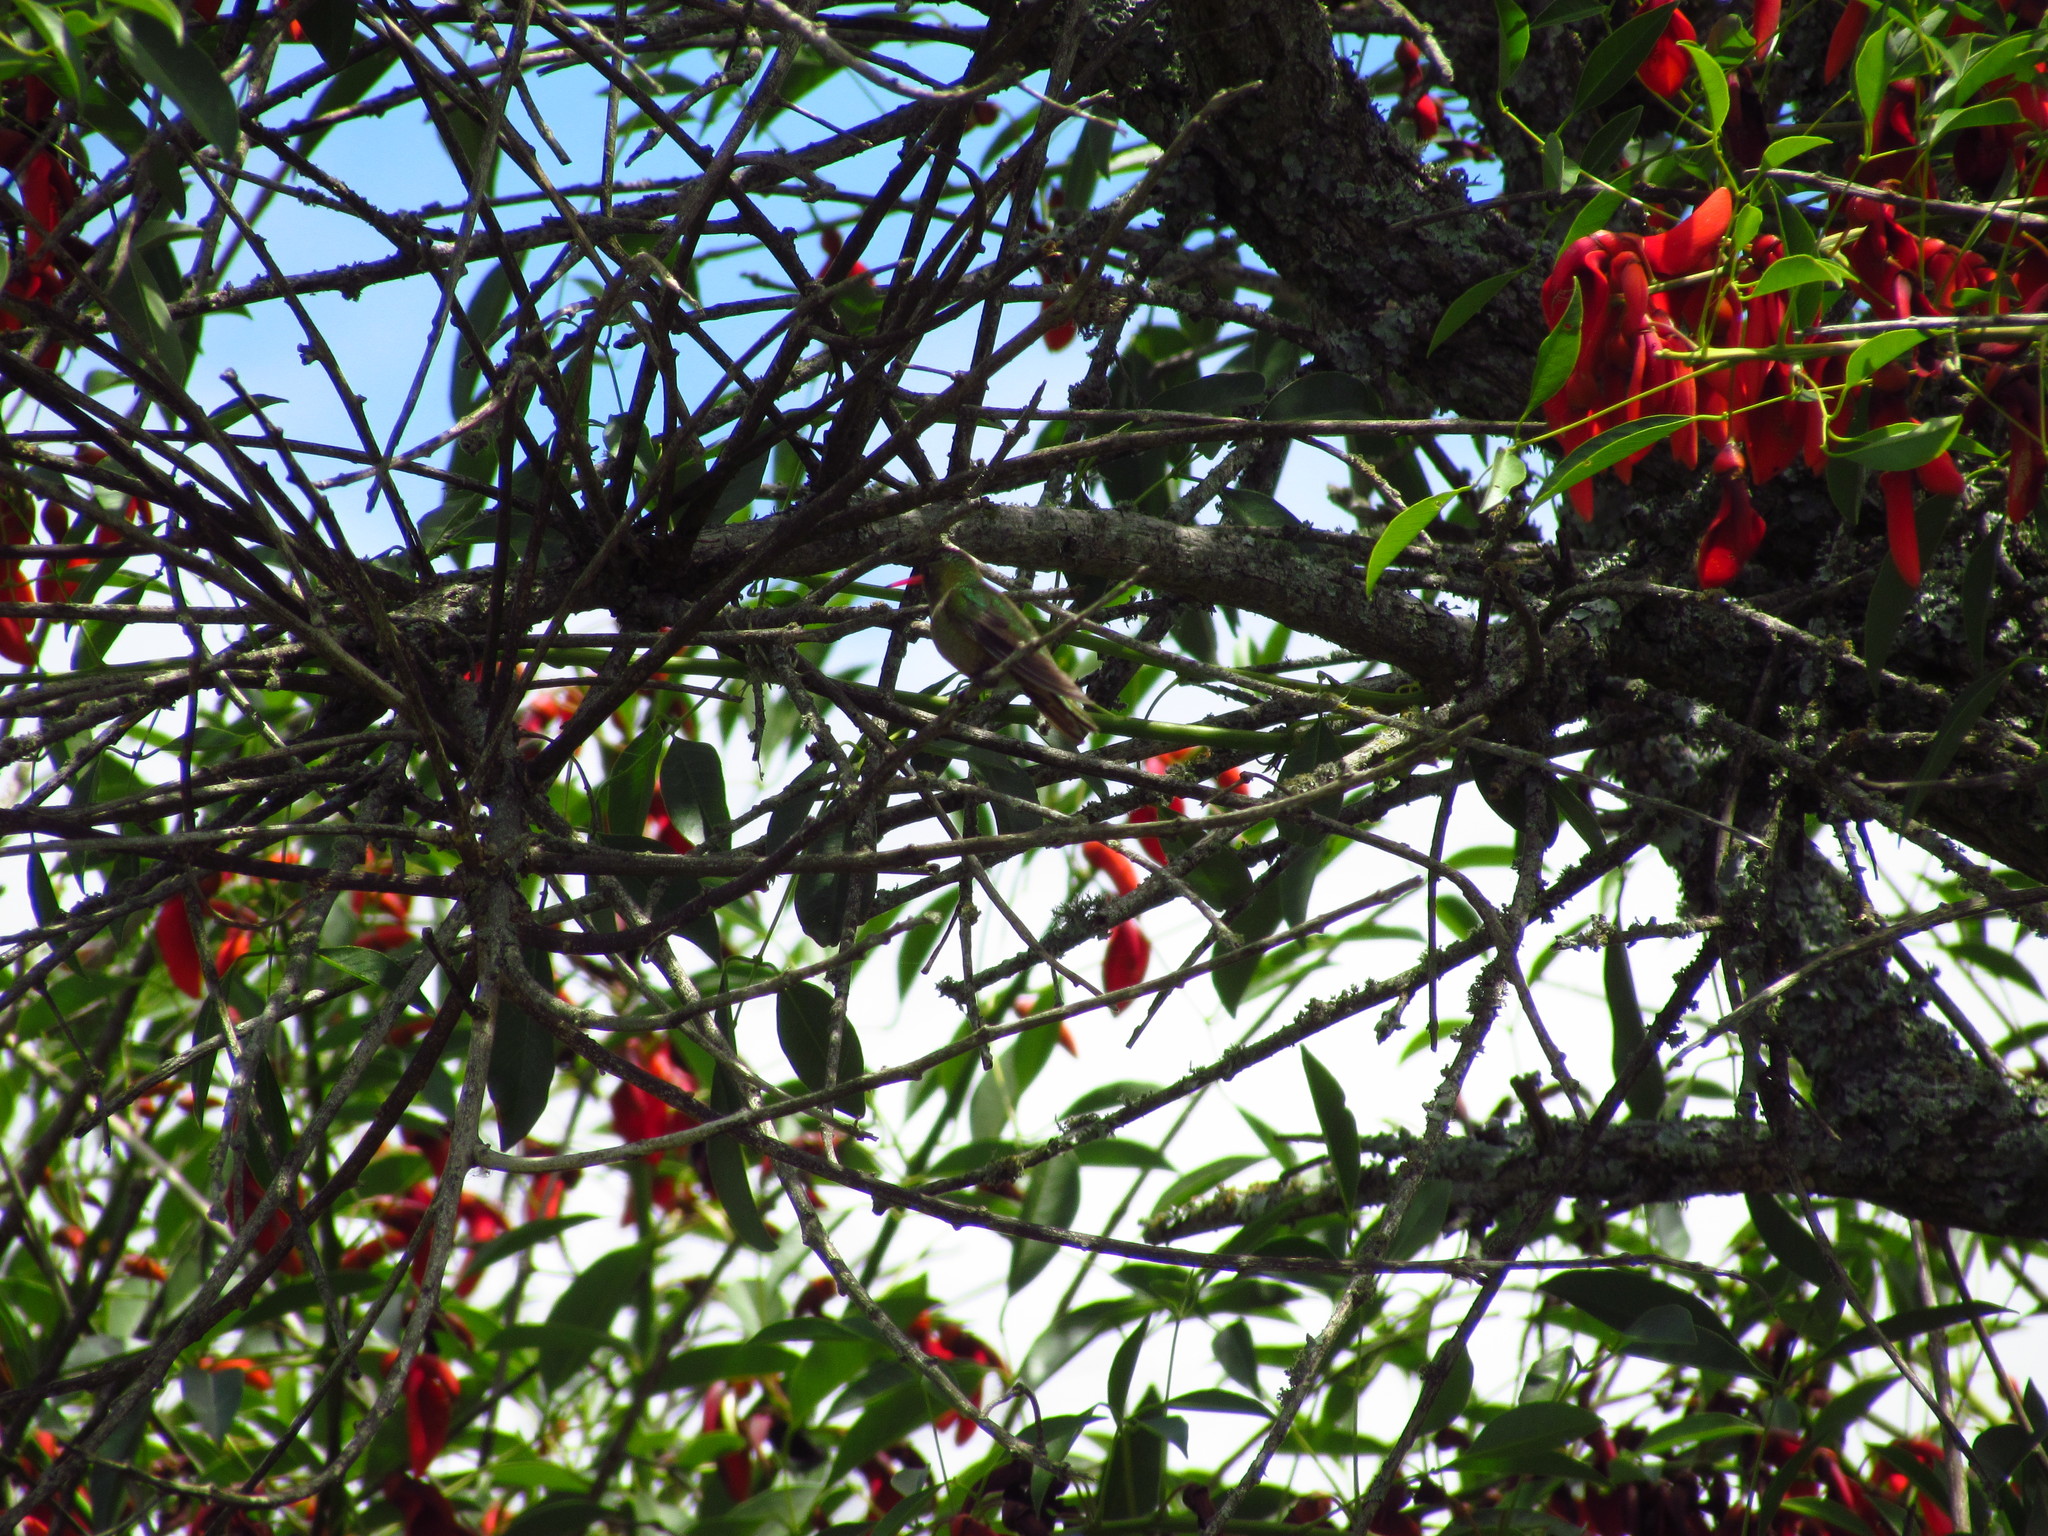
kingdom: Animalia
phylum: Chordata
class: Aves
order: Apodiformes
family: Trochilidae
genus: Hylocharis
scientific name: Hylocharis chrysura
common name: Gilded sapphire
